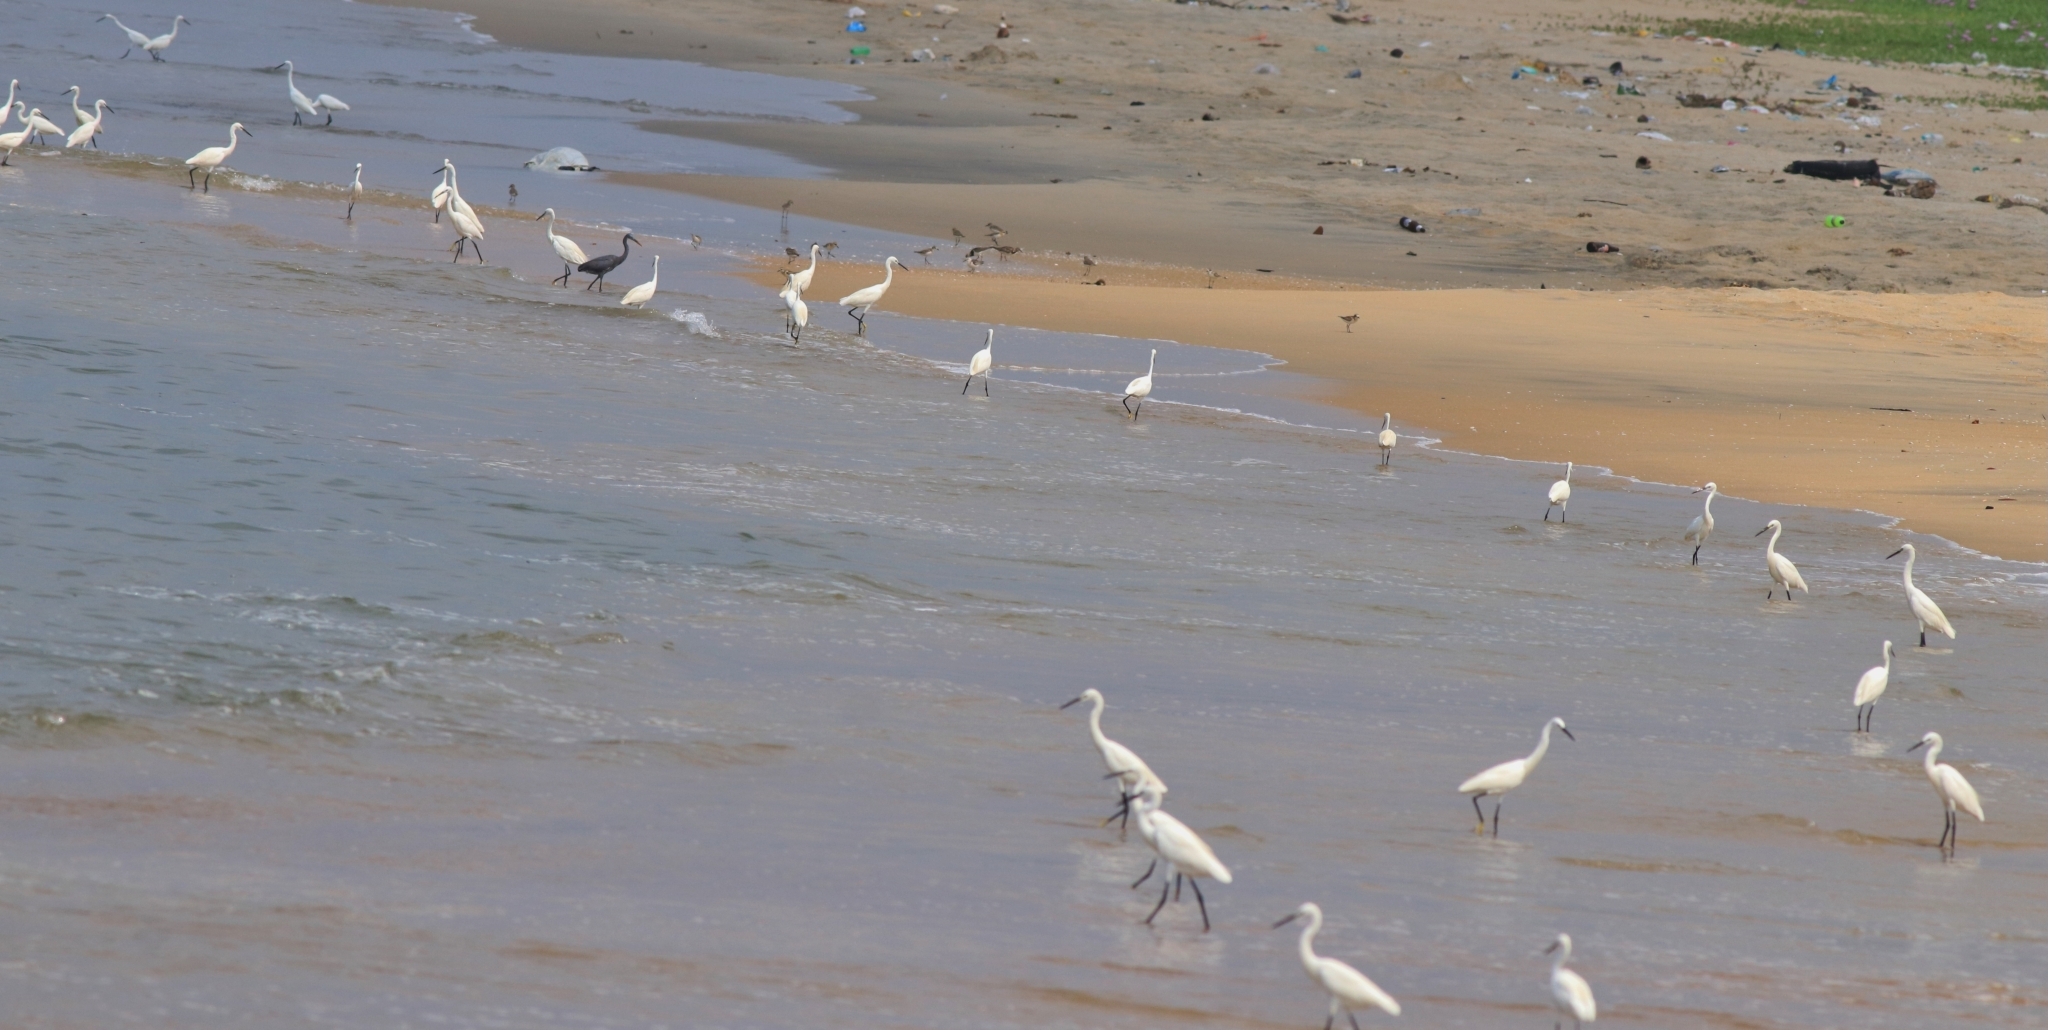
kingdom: Animalia
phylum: Chordata
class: Aves
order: Pelecaniformes
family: Ardeidae
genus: Egretta
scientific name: Egretta garzetta
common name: Little egret
